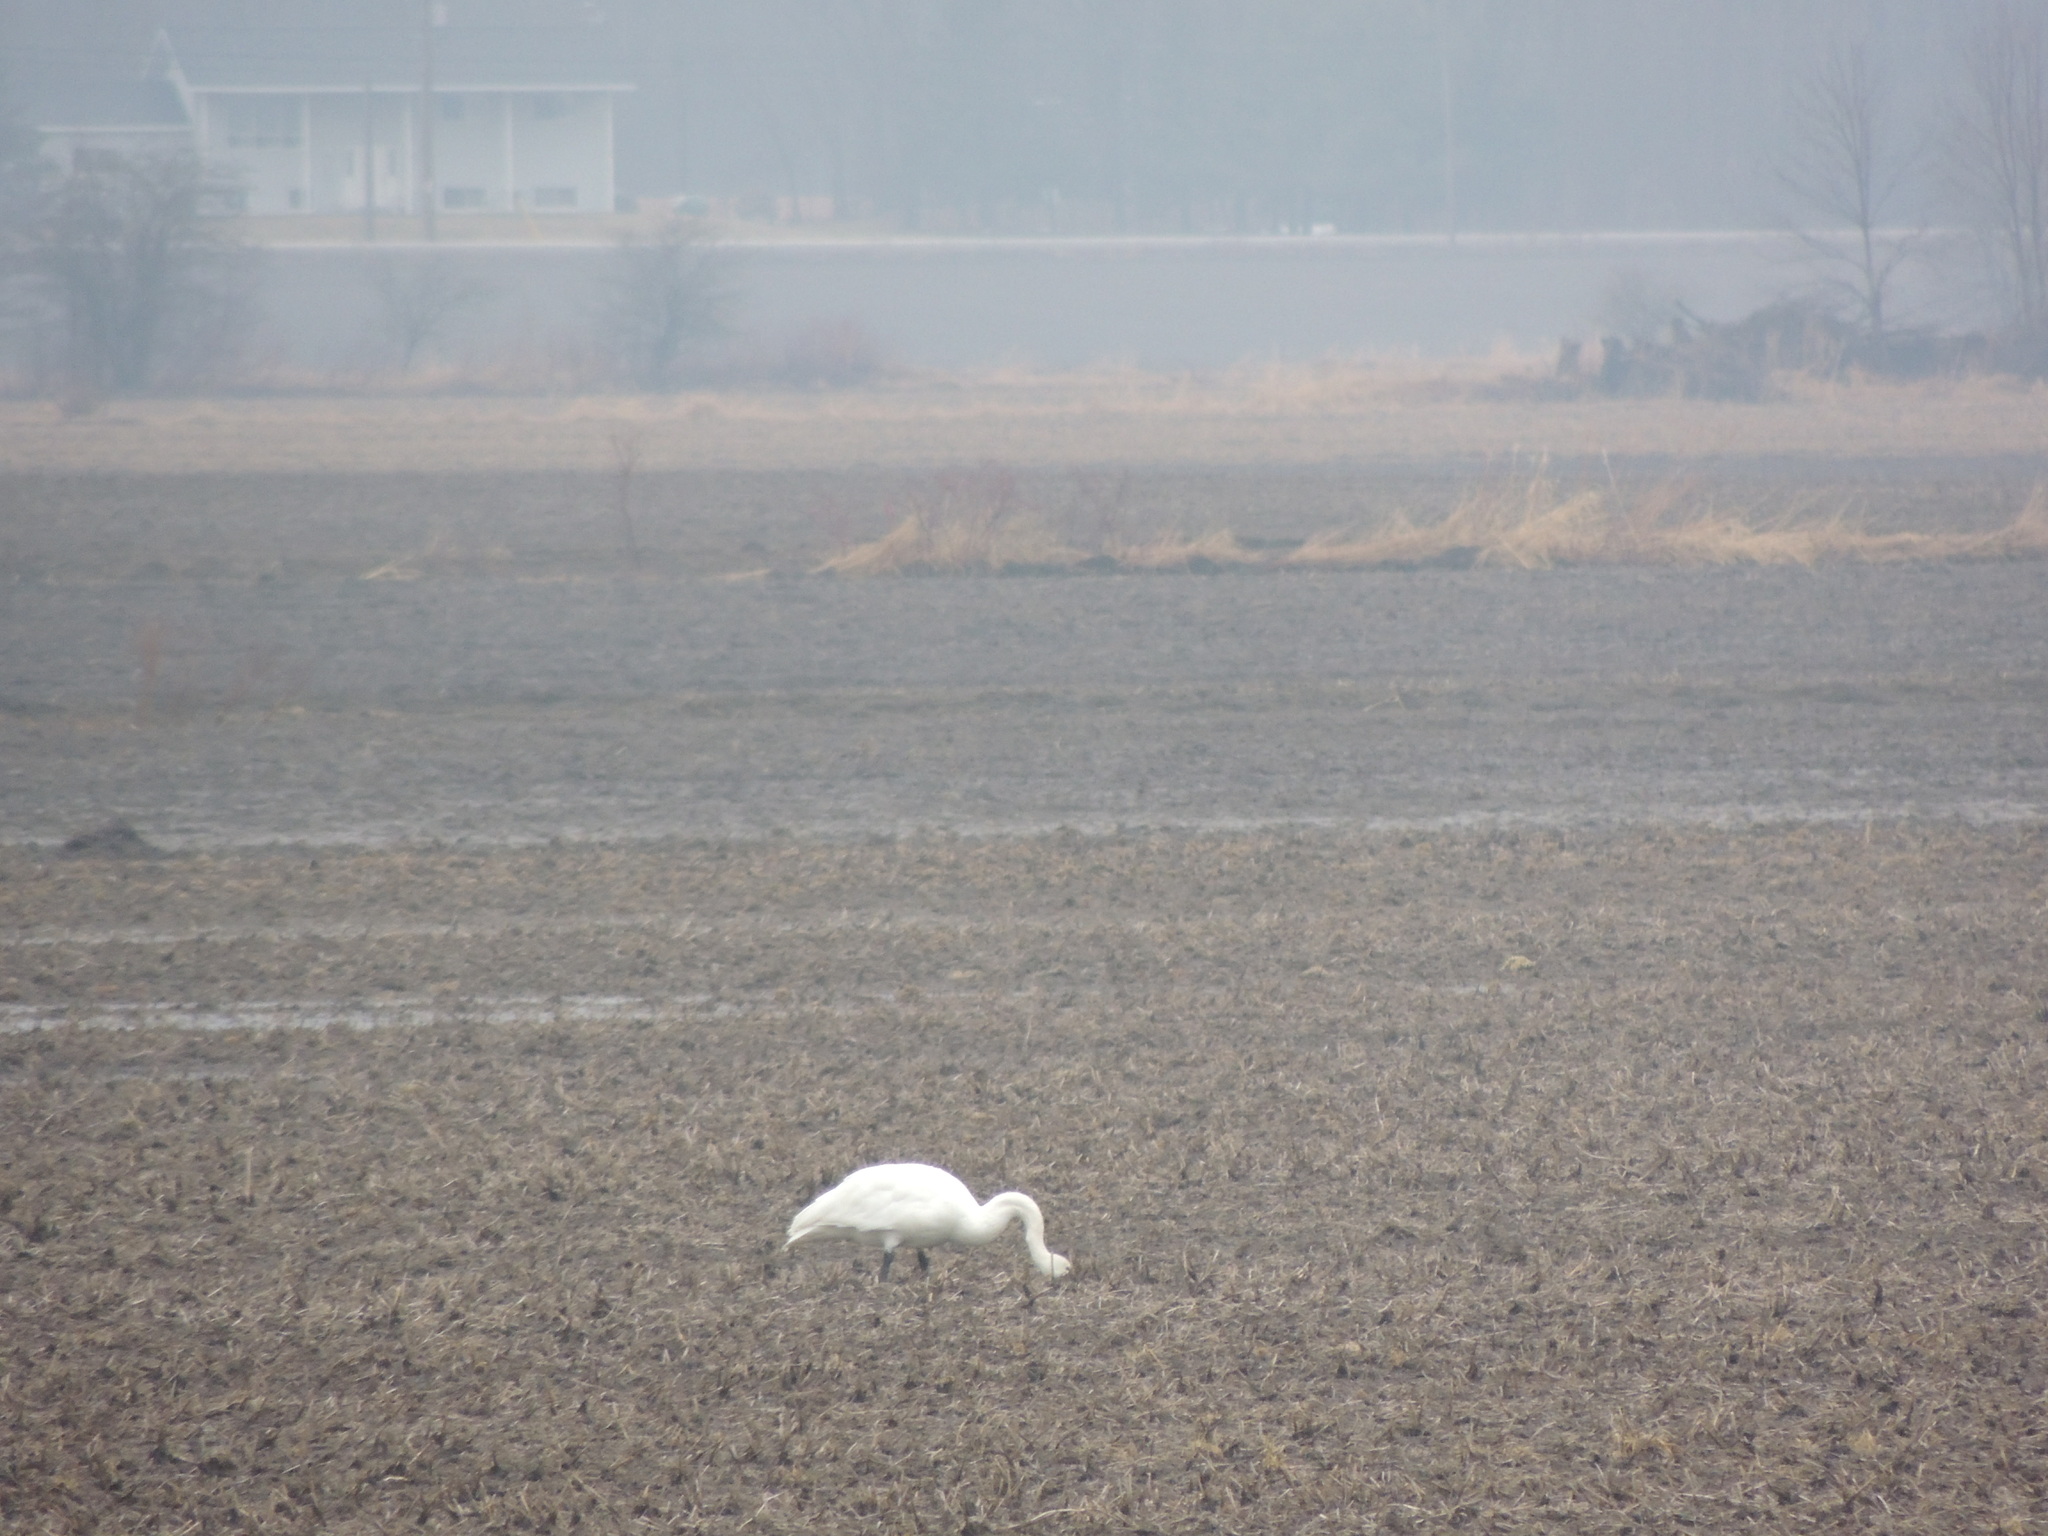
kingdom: Animalia
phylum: Chordata
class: Aves
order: Anseriformes
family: Anatidae
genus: Cygnus
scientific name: Cygnus columbianus
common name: Tundra swan
